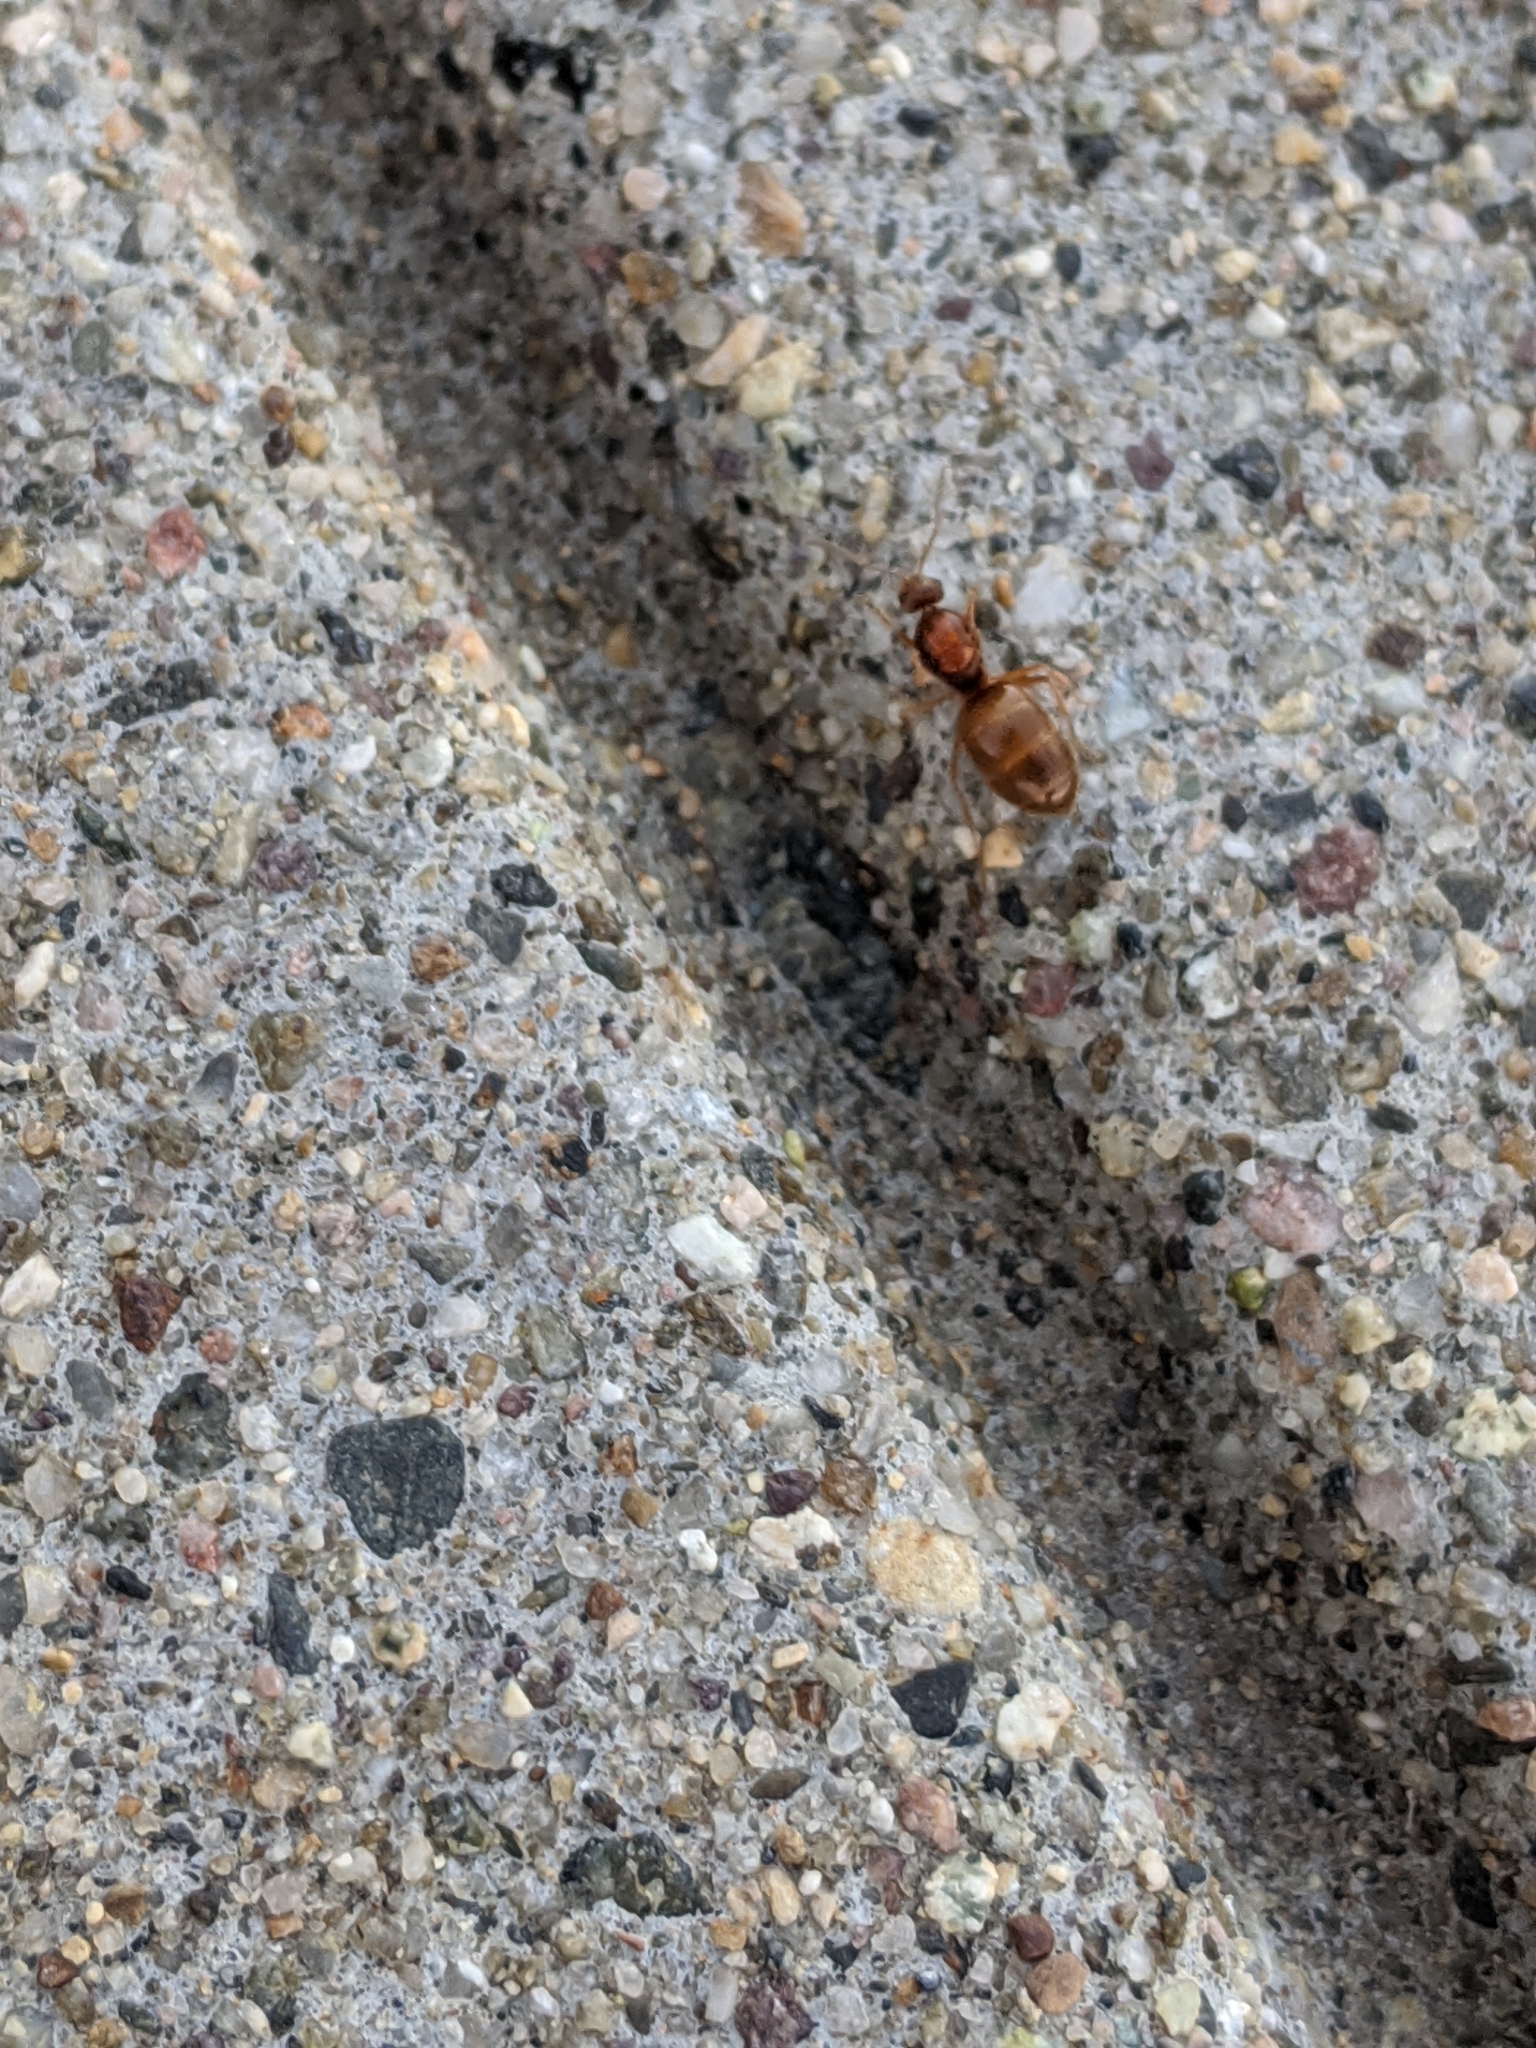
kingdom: Animalia
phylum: Arthropoda
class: Insecta
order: Hymenoptera
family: Formicidae
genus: Prenolepis
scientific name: Prenolepis imparis
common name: Small honey ant
